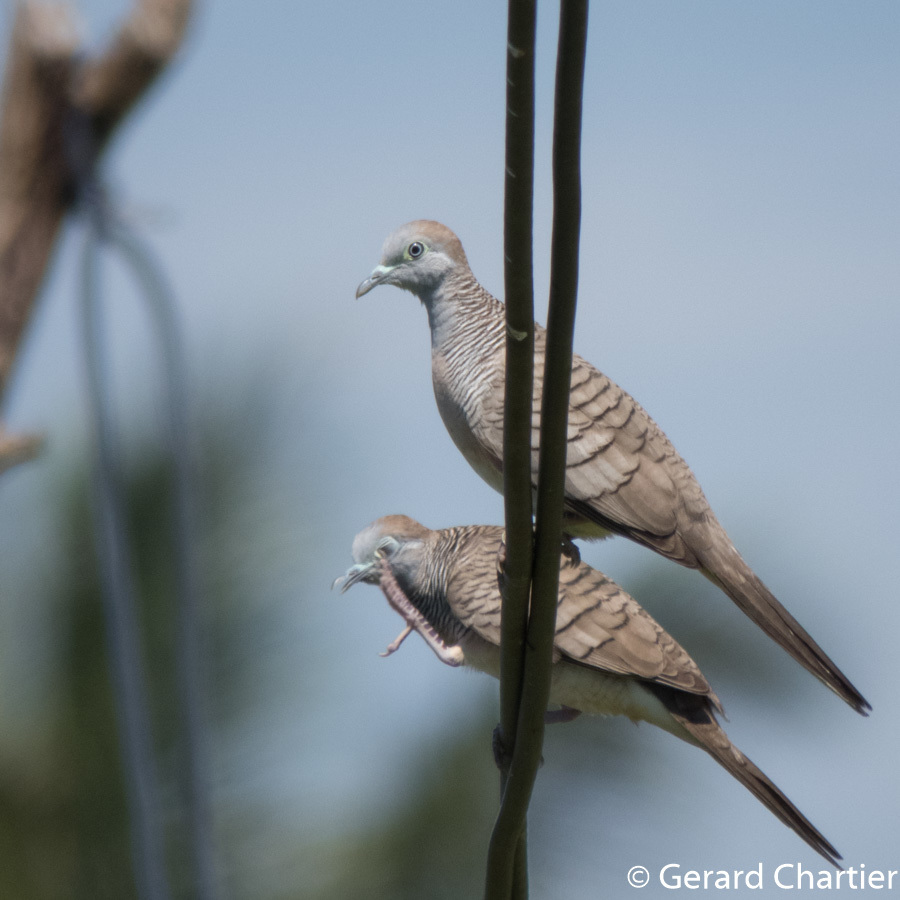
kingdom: Animalia
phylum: Chordata
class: Aves
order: Columbiformes
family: Columbidae
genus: Geopelia
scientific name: Geopelia striata
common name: Zebra dove
